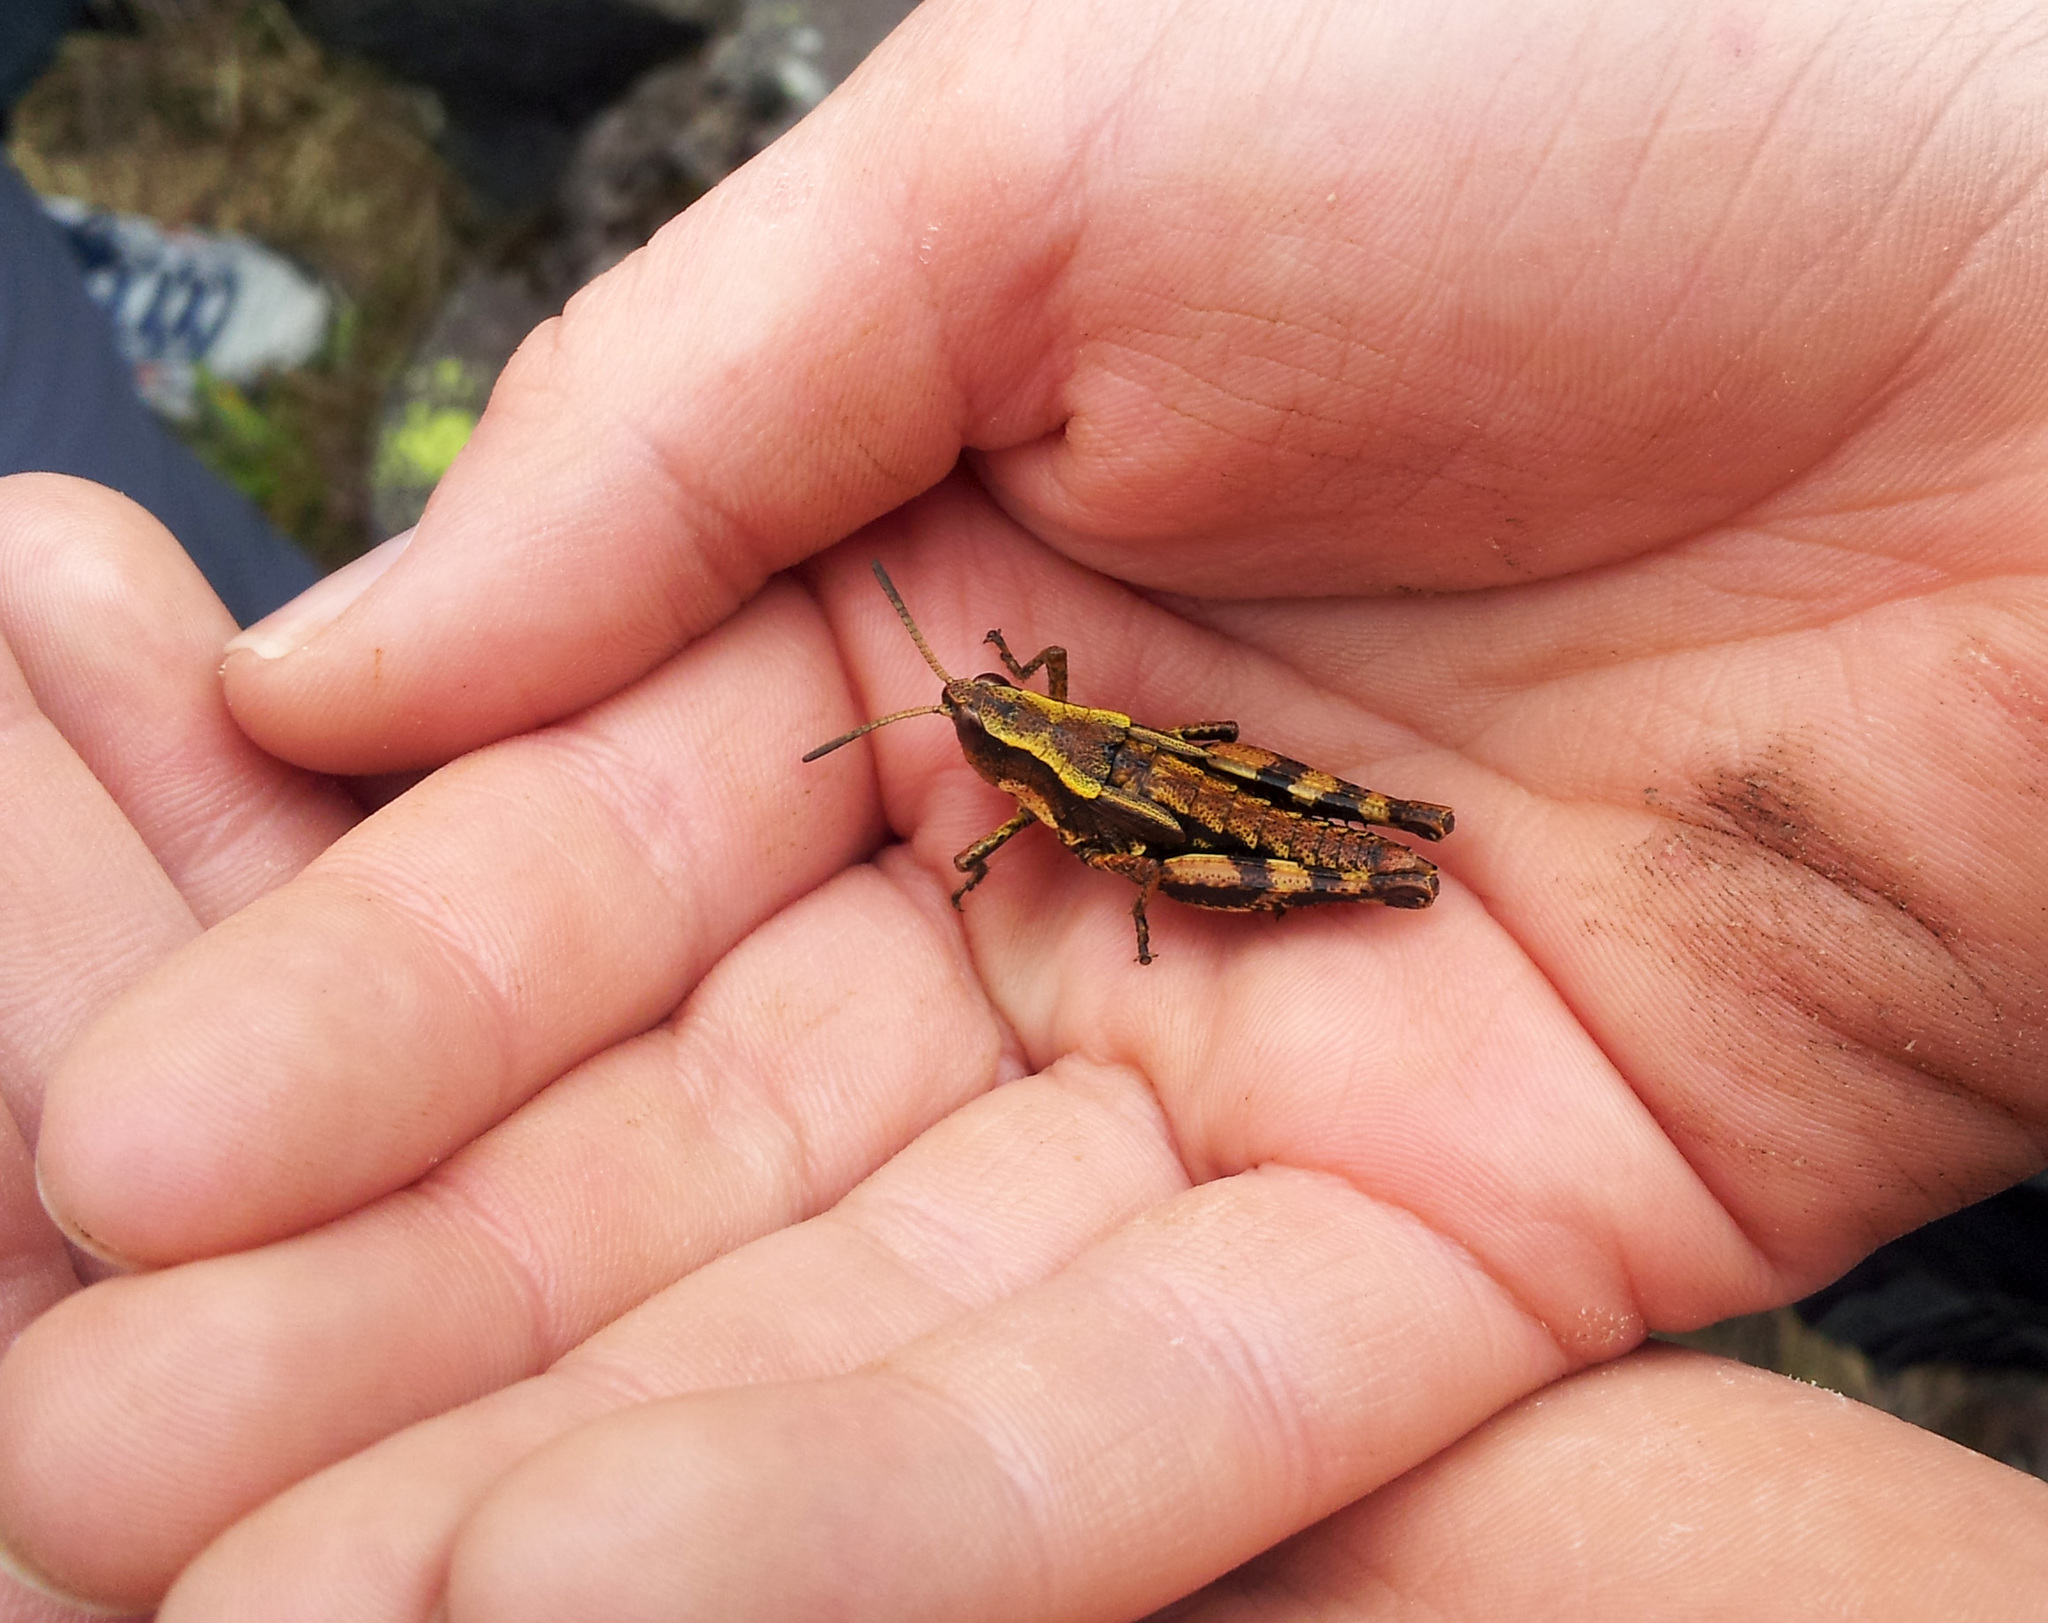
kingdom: Animalia
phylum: Arthropoda
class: Insecta
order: Orthoptera
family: Acrididae
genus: Sigaus
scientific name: Sigaus piliferus
